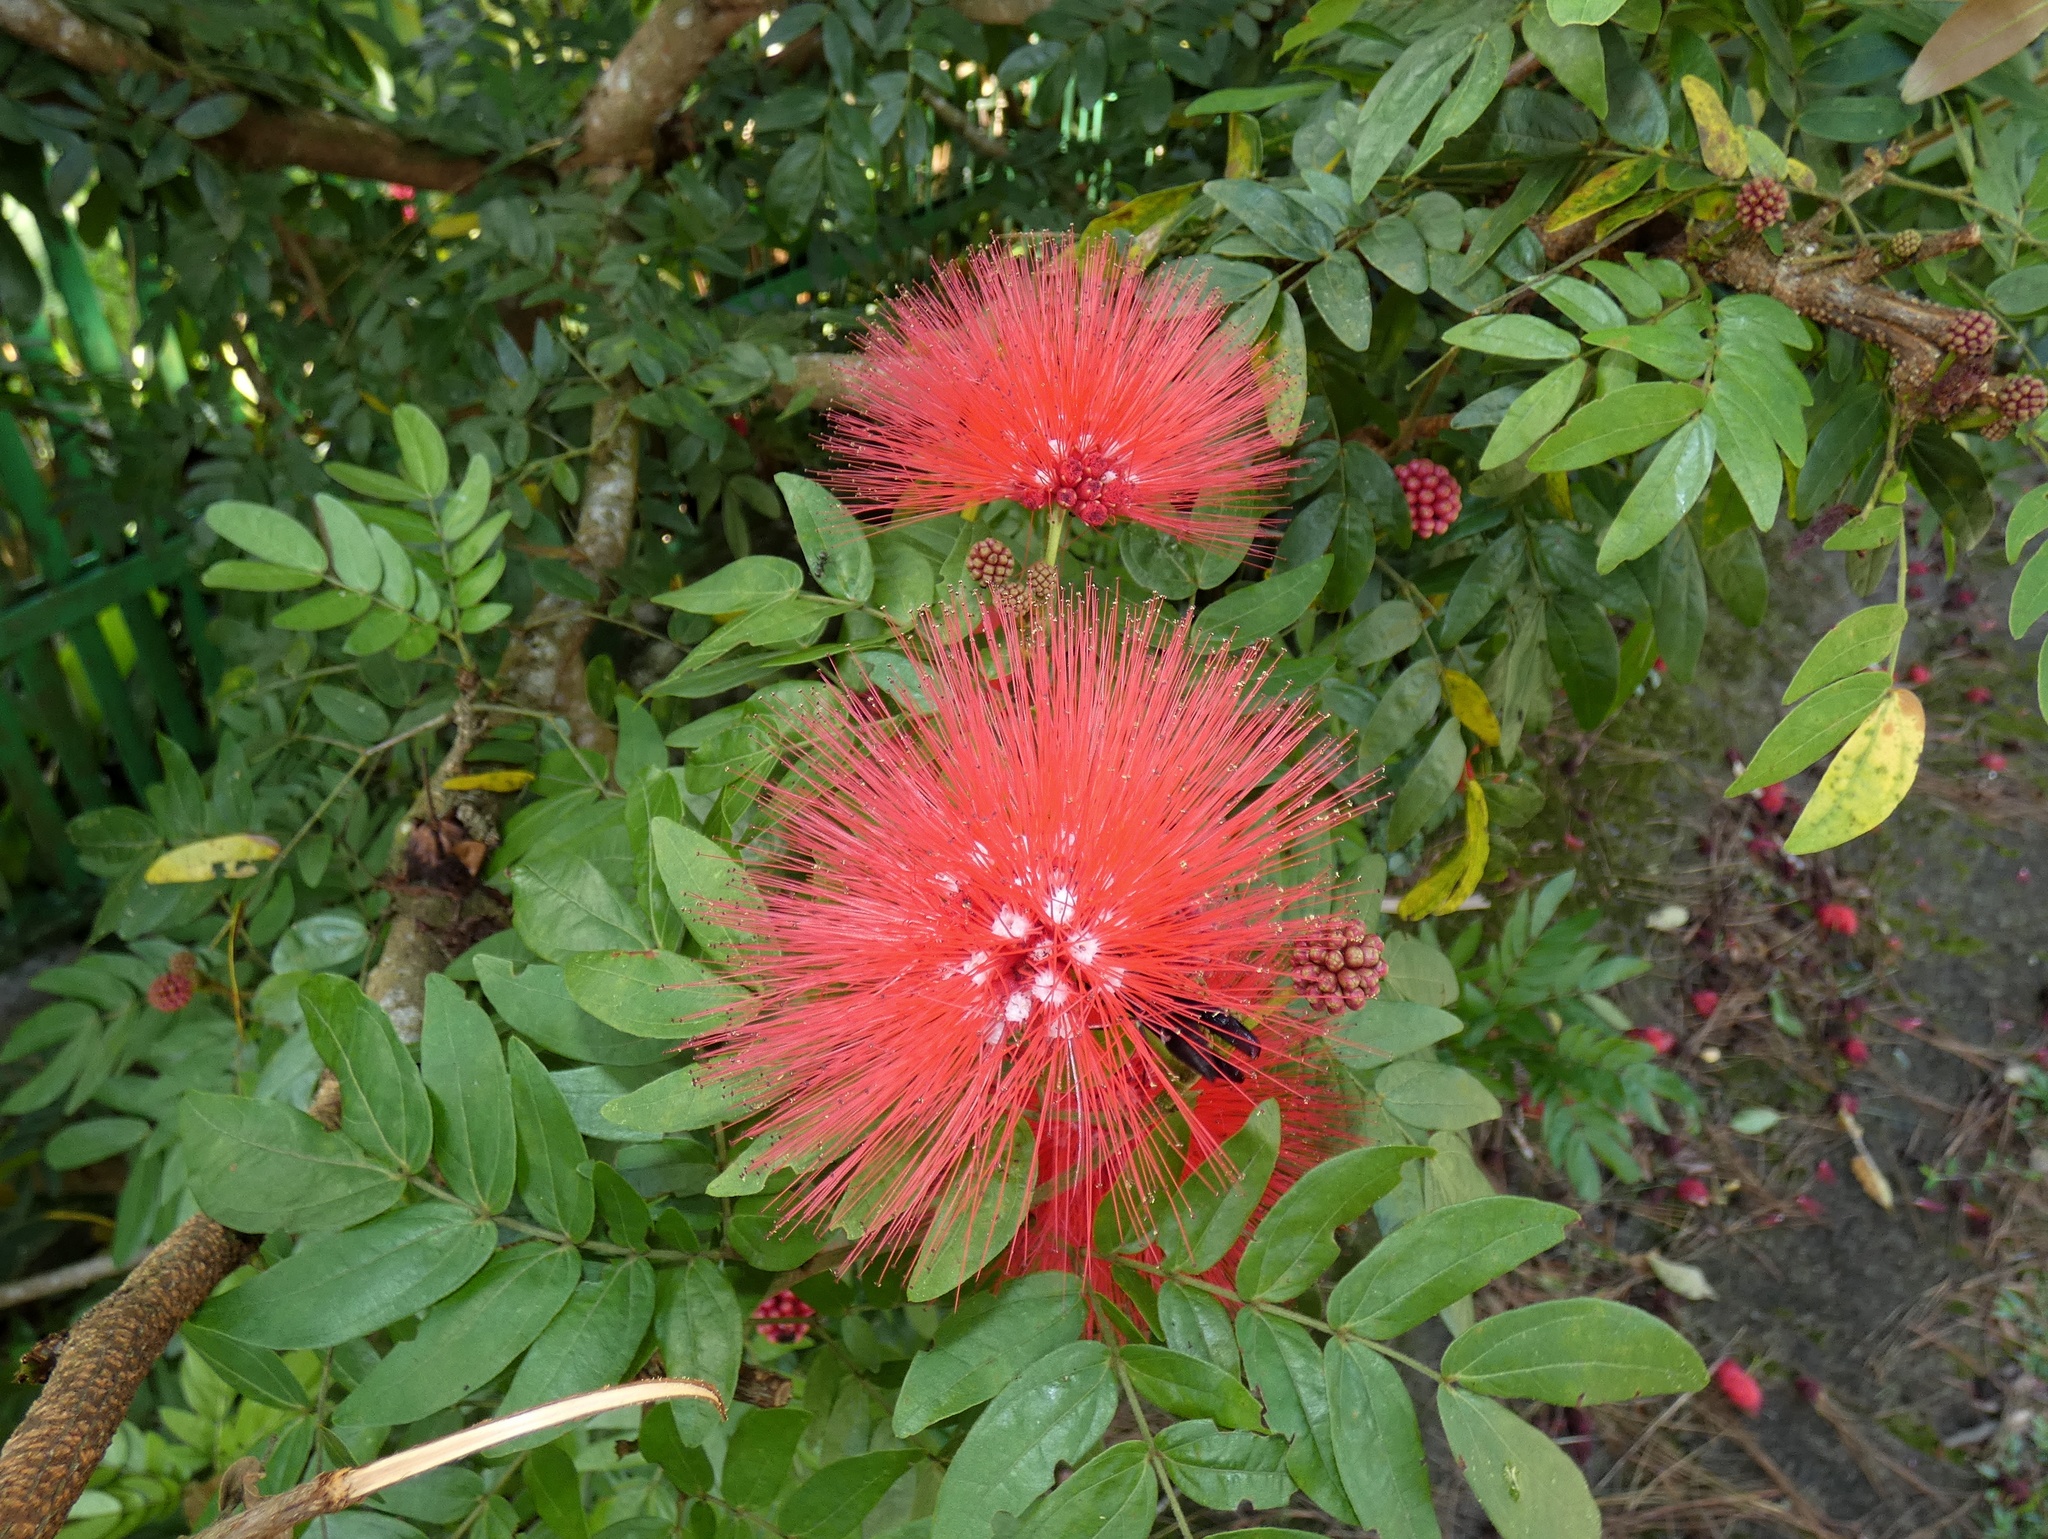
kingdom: Plantae
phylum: Tracheophyta
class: Magnoliopsida
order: Fabales
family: Fabaceae
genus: Calliandra
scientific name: Calliandra haematocephala
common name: Blood red tassel flower
